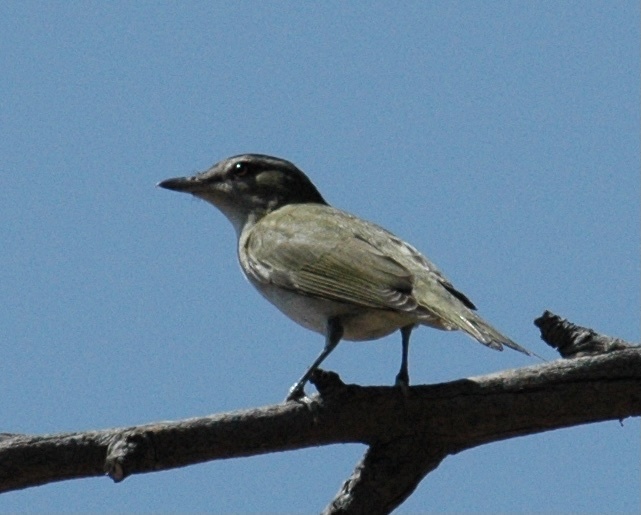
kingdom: Animalia
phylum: Chordata
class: Aves
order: Passeriformes
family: Vireonidae
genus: Vireo
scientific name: Vireo olivaceus
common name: Red-eyed vireo
